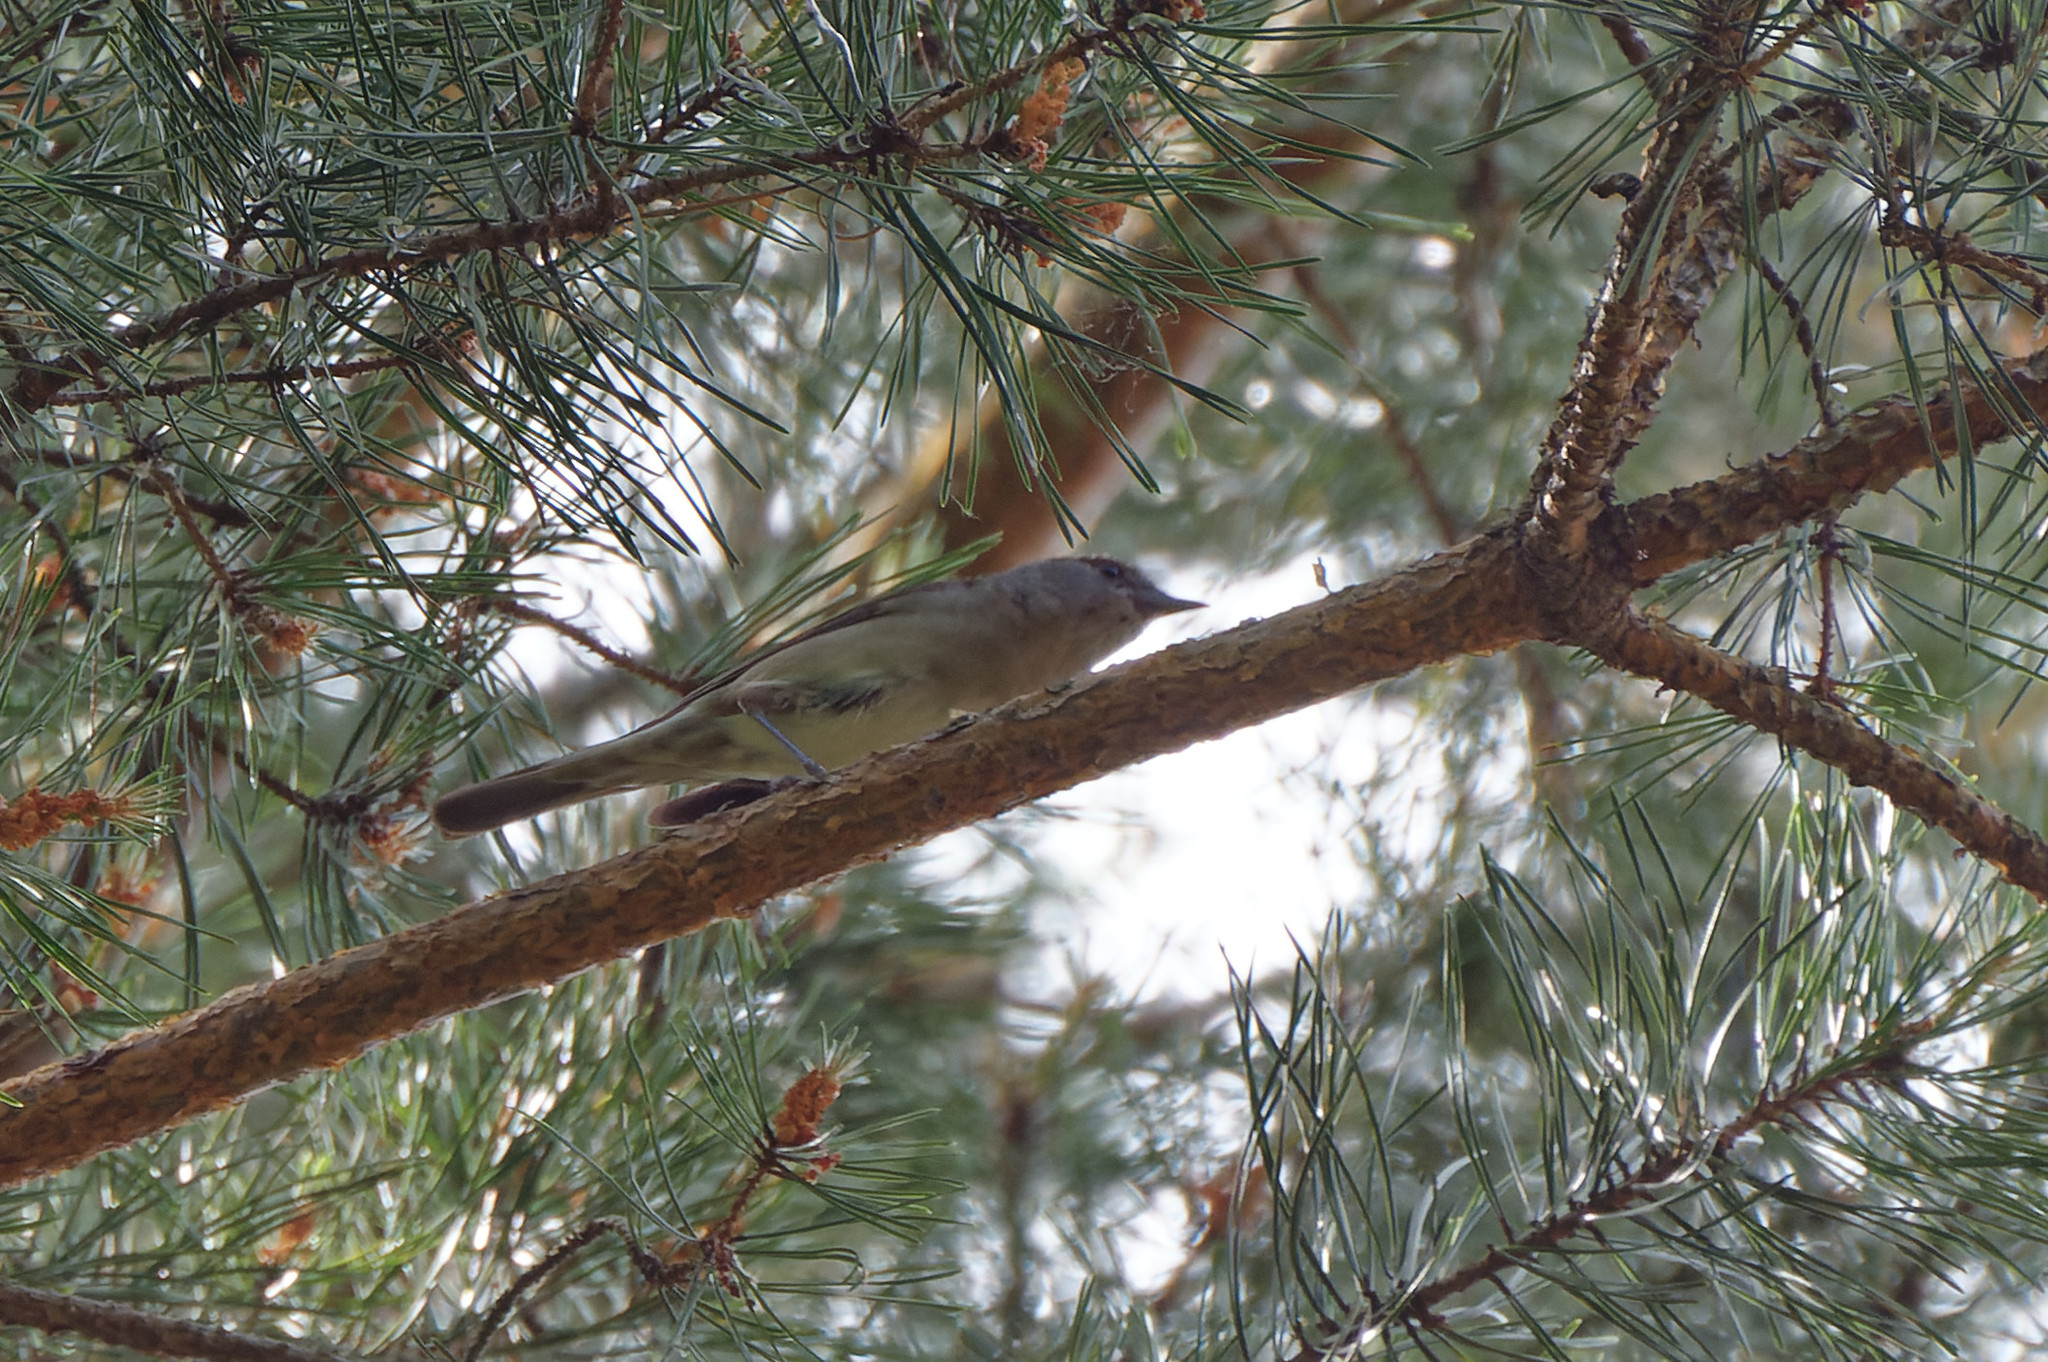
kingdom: Animalia
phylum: Chordata
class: Aves
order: Passeriformes
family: Sylviidae
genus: Sylvia
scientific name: Sylvia atricapilla
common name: Eurasian blackcap
